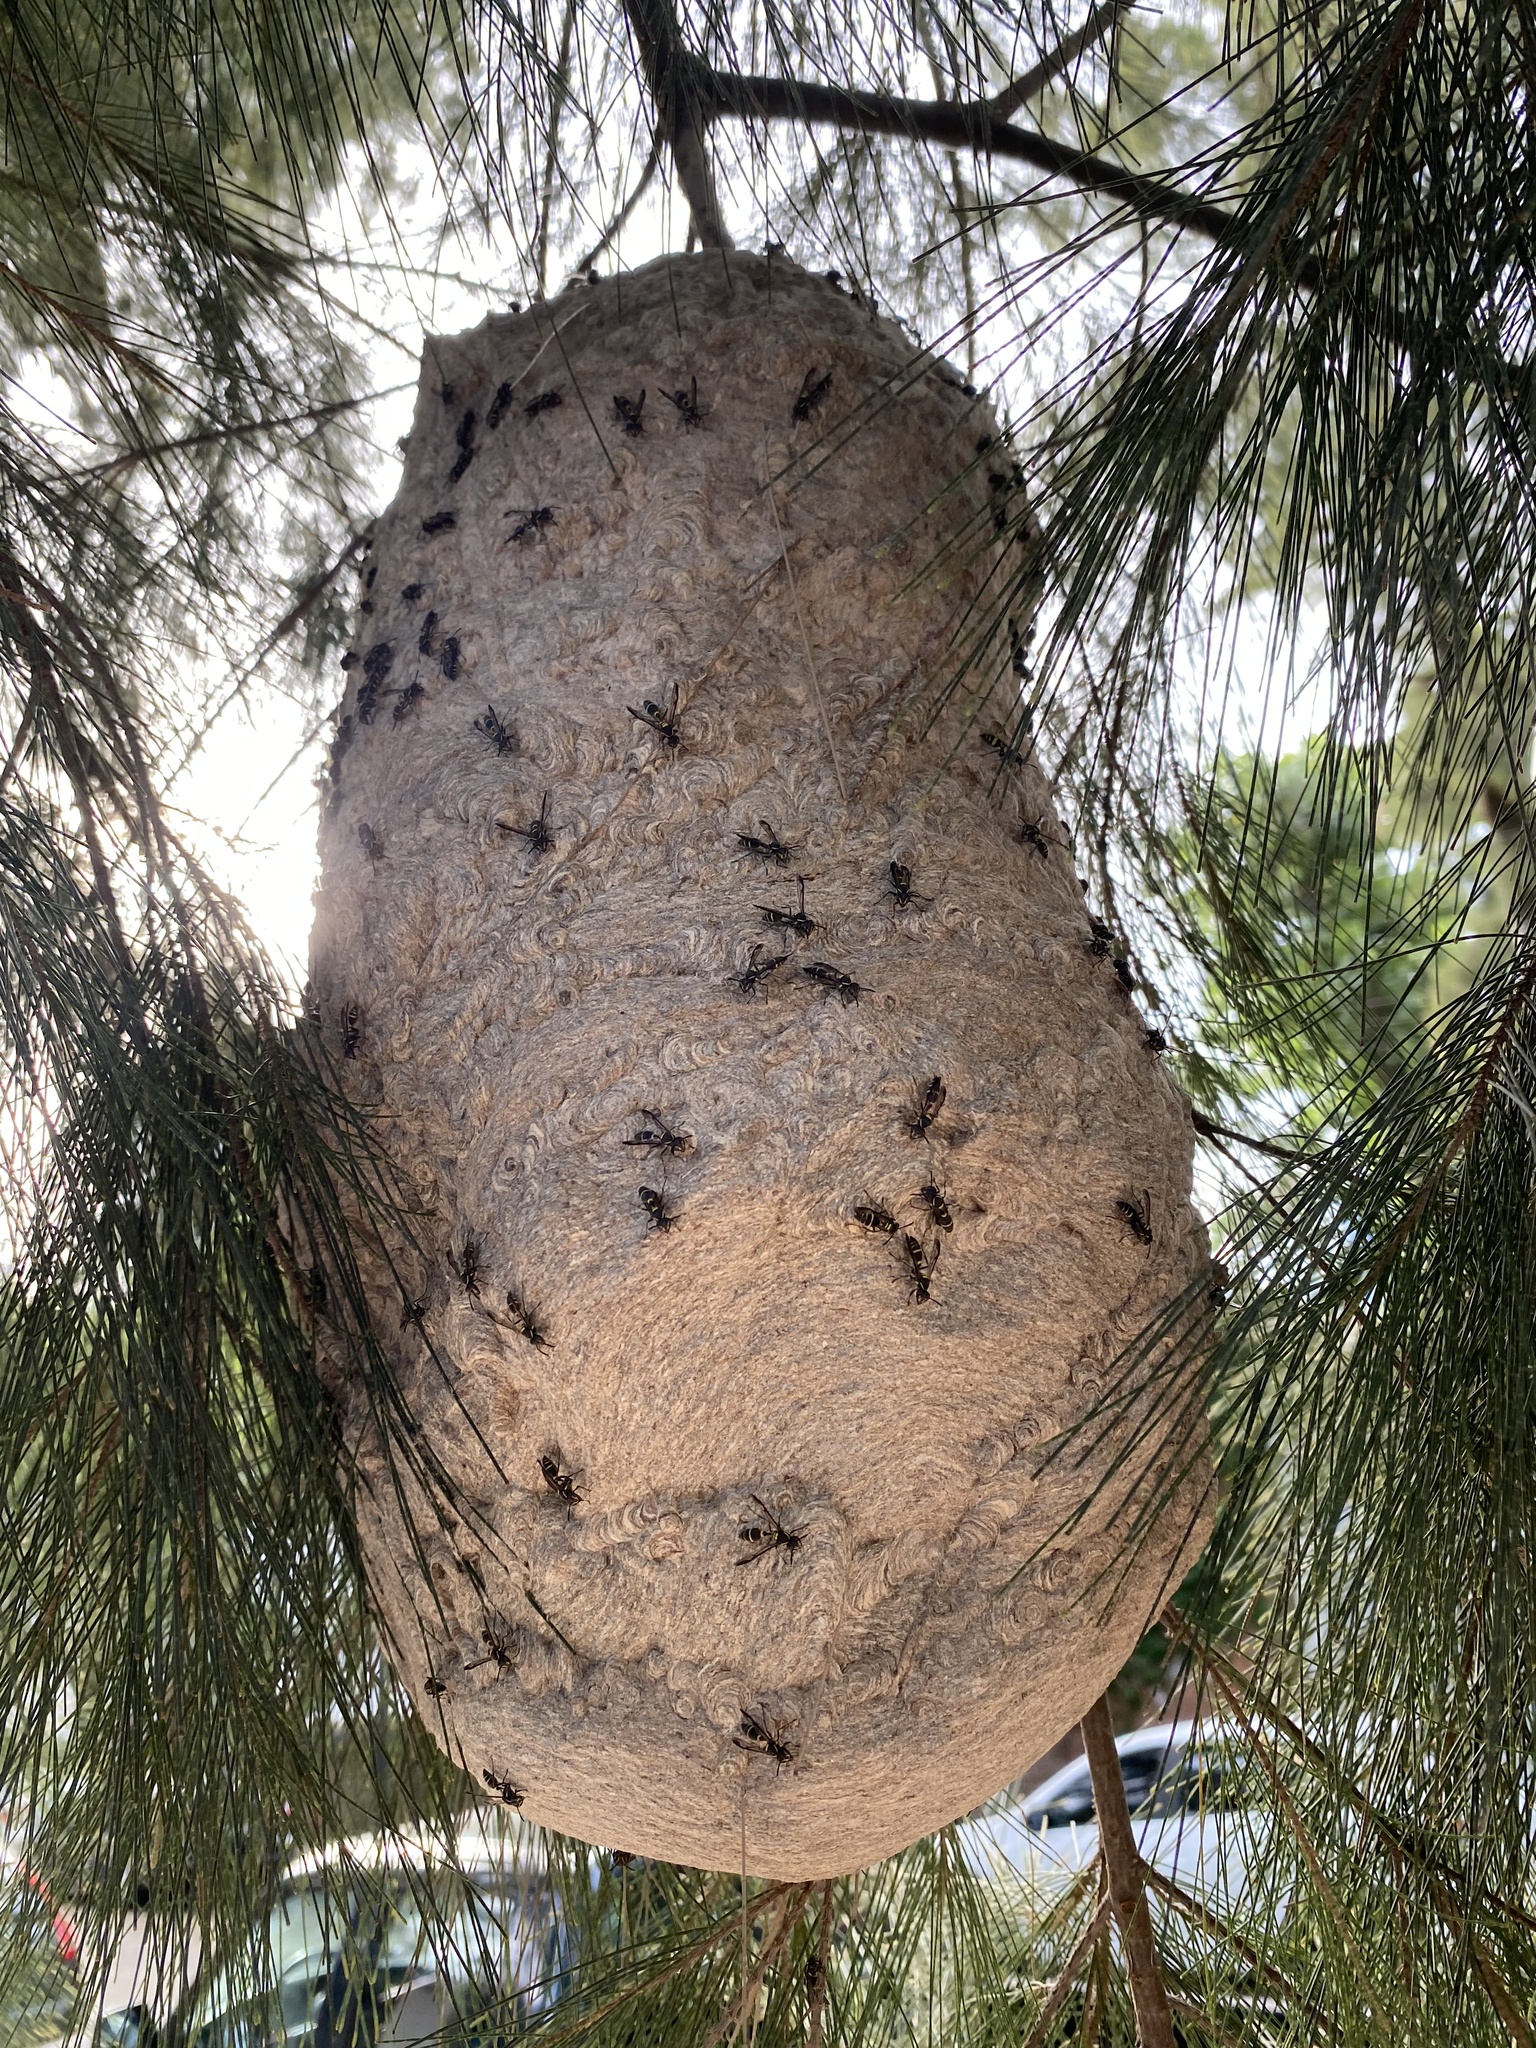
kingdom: Animalia
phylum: Arthropoda
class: Insecta
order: Hymenoptera
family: Eumenidae
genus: Polybia
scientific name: Polybia occidentalis
